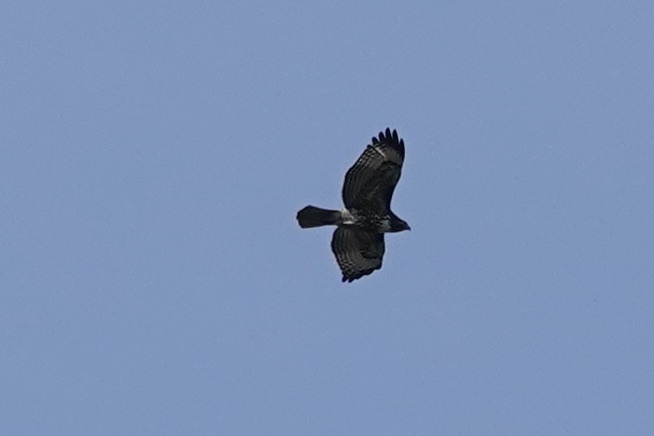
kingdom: Animalia
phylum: Chordata
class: Aves
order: Accipitriformes
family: Accipitridae
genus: Buteo
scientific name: Buteo jamaicensis
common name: Red-tailed hawk
